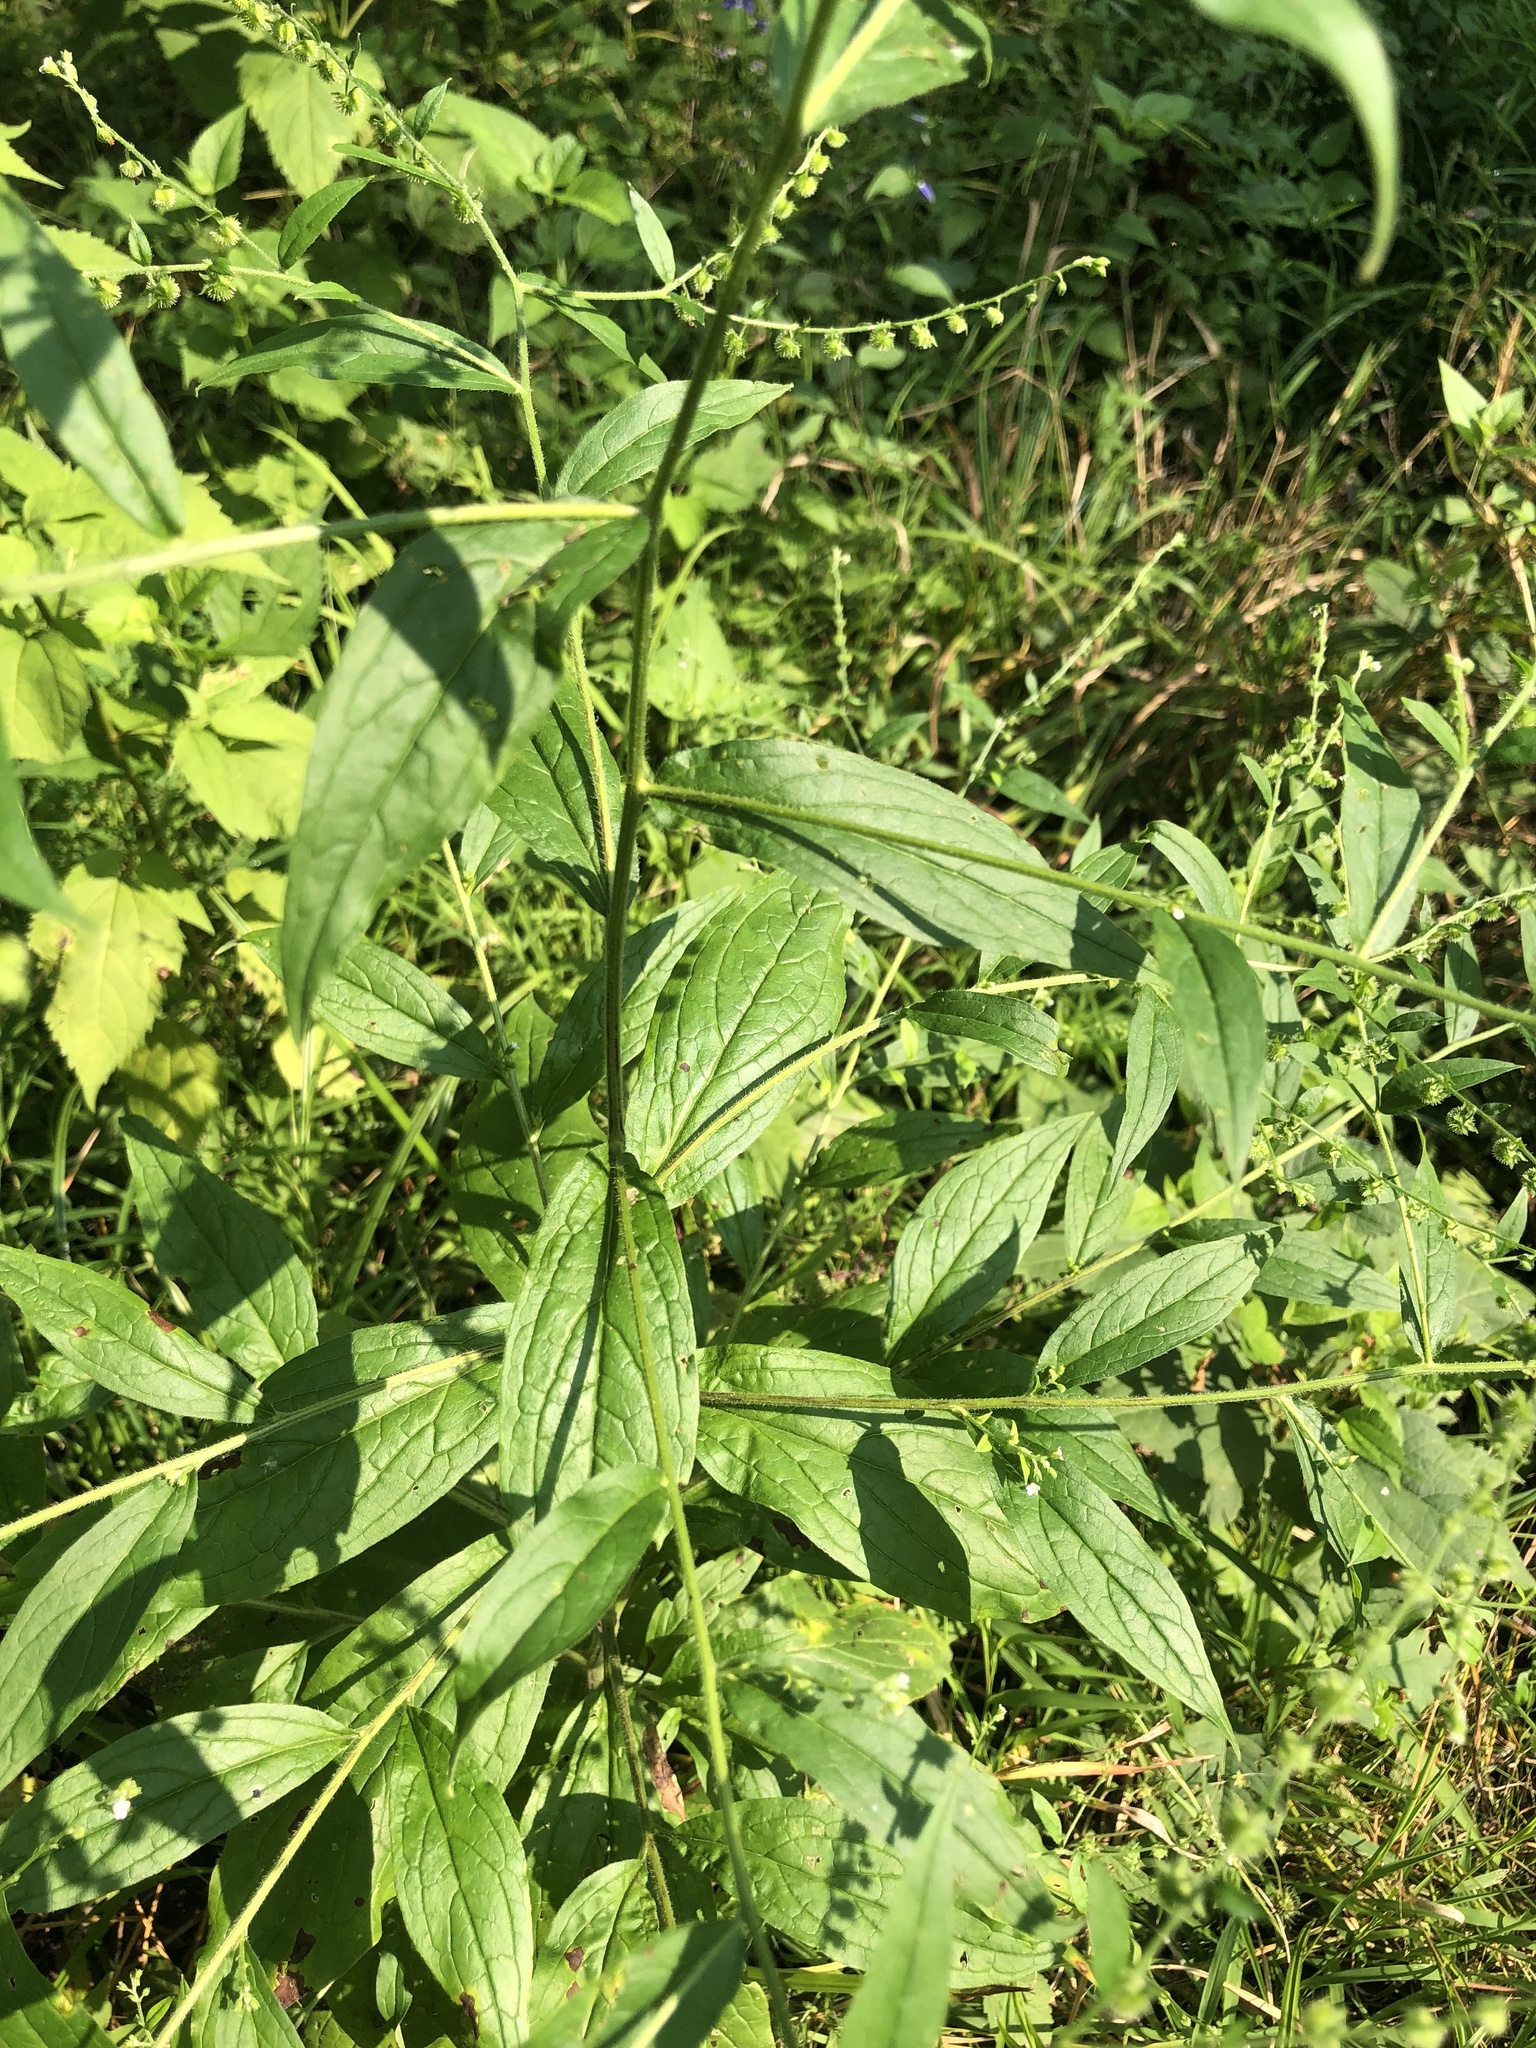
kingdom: Plantae
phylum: Tracheophyta
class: Magnoliopsida
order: Boraginales
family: Boraginaceae
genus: Hackelia
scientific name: Hackelia virginiana
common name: Beggar's-lice
